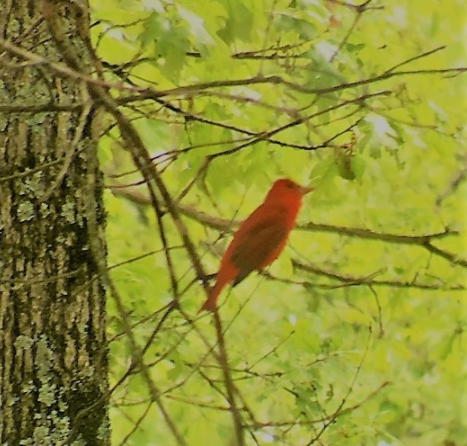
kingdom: Animalia
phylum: Chordata
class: Aves
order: Passeriformes
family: Cardinalidae
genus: Piranga
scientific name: Piranga rubra
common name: Summer tanager
